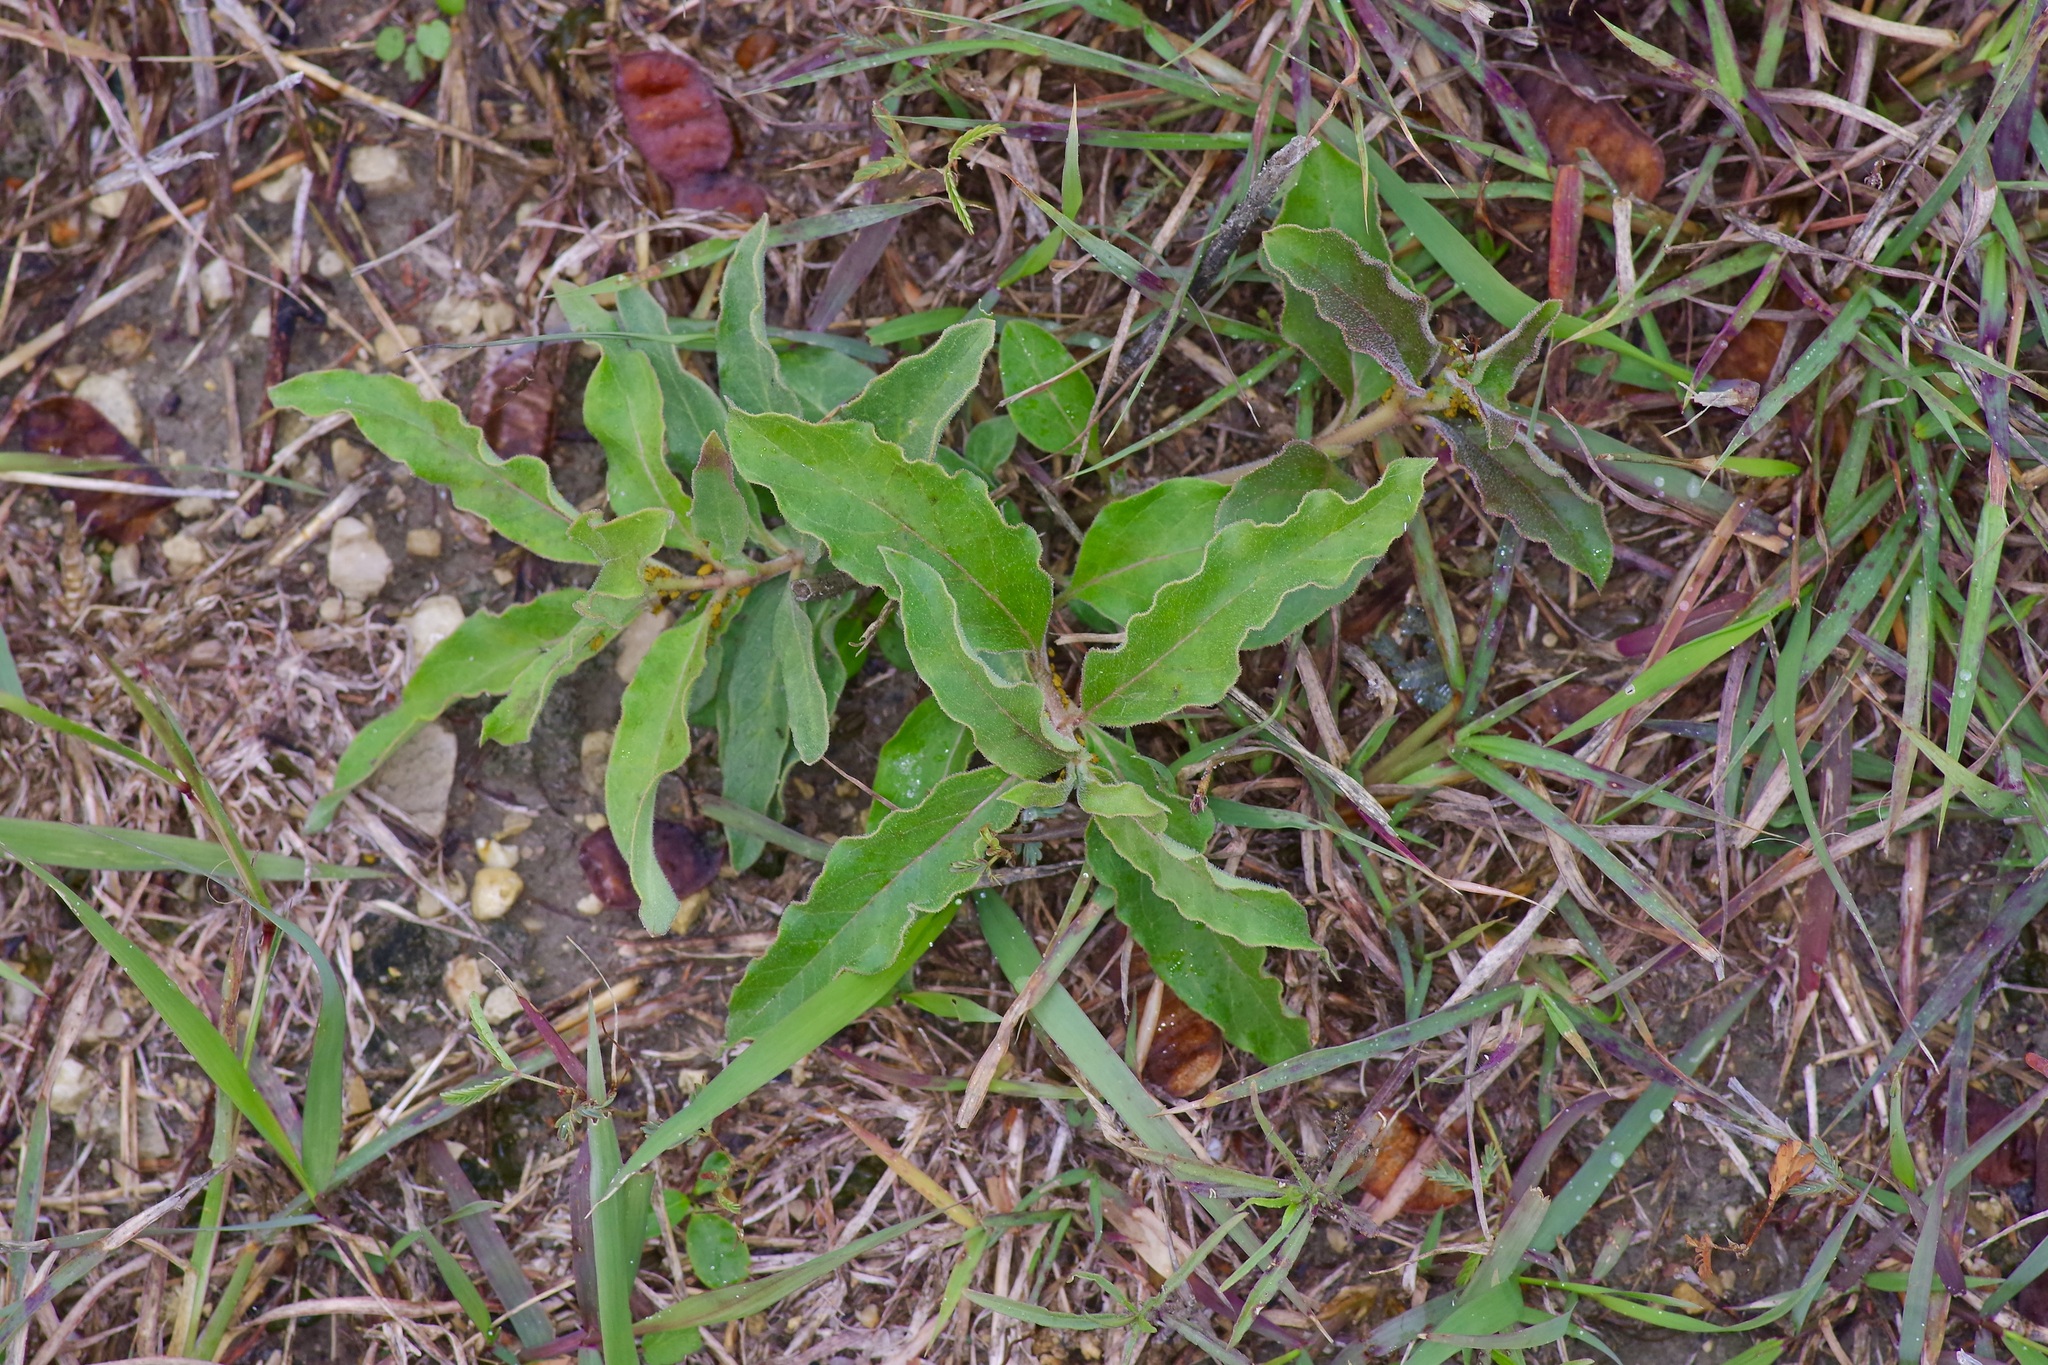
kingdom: Plantae
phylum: Tracheophyta
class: Magnoliopsida
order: Gentianales
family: Apocynaceae
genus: Asclepias
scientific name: Asclepias oenotheroides
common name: Zizotes milkweed
